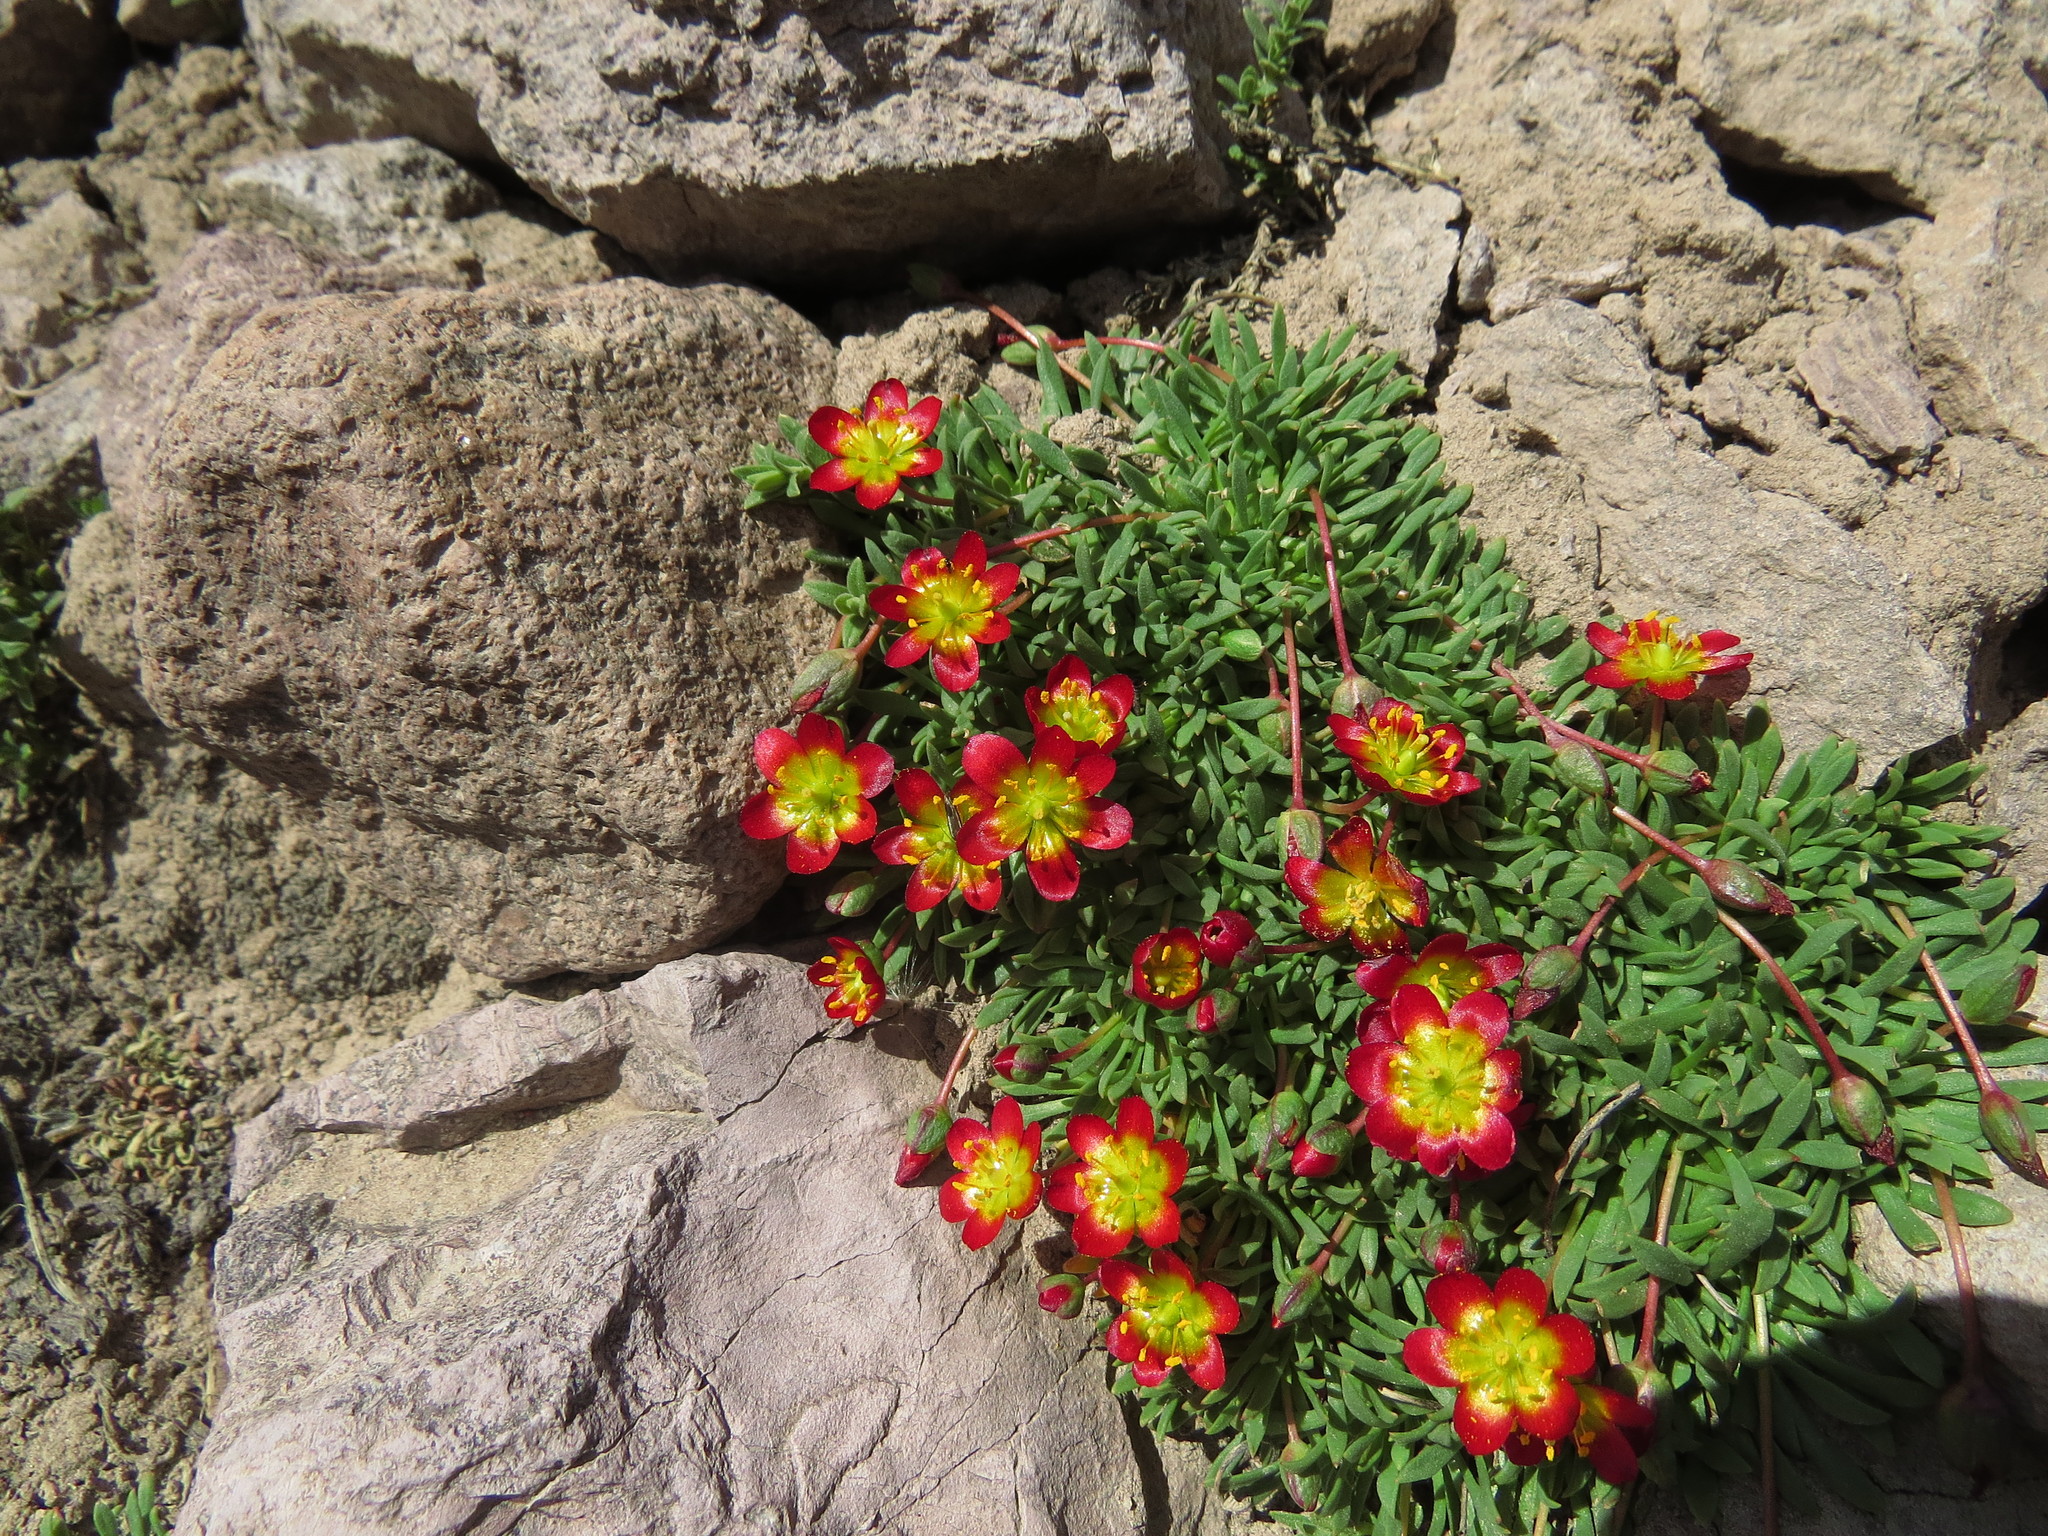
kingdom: Plantae
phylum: Tracheophyta
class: Magnoliopsida
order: Caryophyllales
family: Montiaceae
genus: Calandrinia
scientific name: Calandrinia caespitosa
